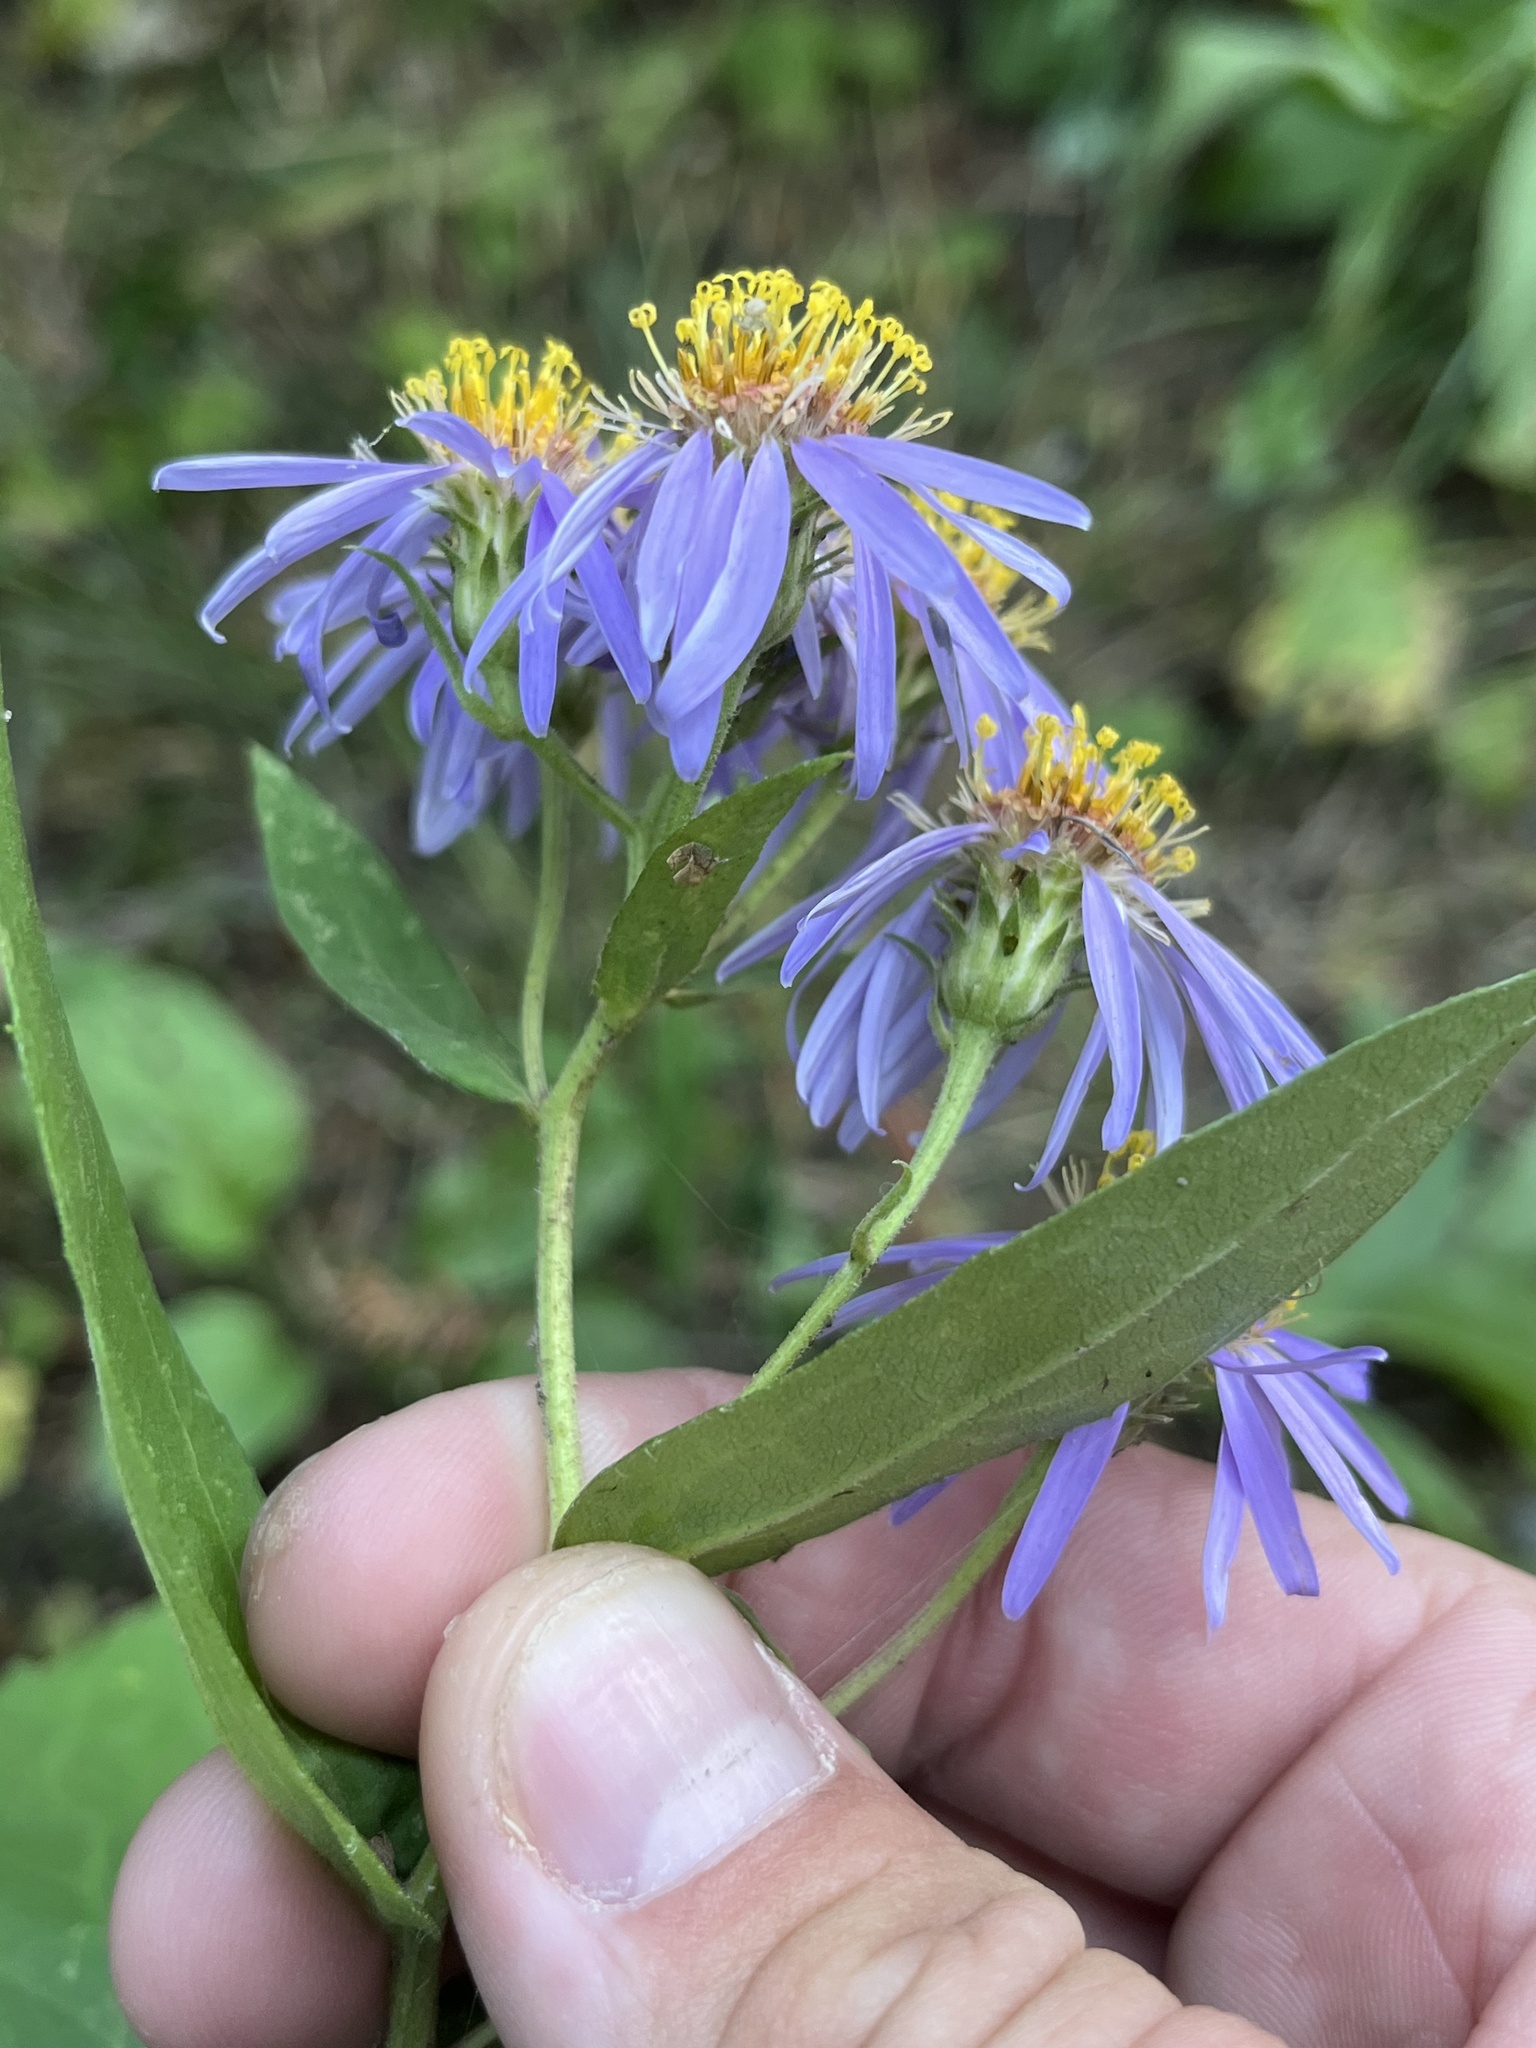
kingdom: Plantae
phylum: Tracheophyta
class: Magnoliopsida
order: Asterales
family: Asteraceae
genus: Eurybia
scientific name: Eurybia conspicua
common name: Showy aster
